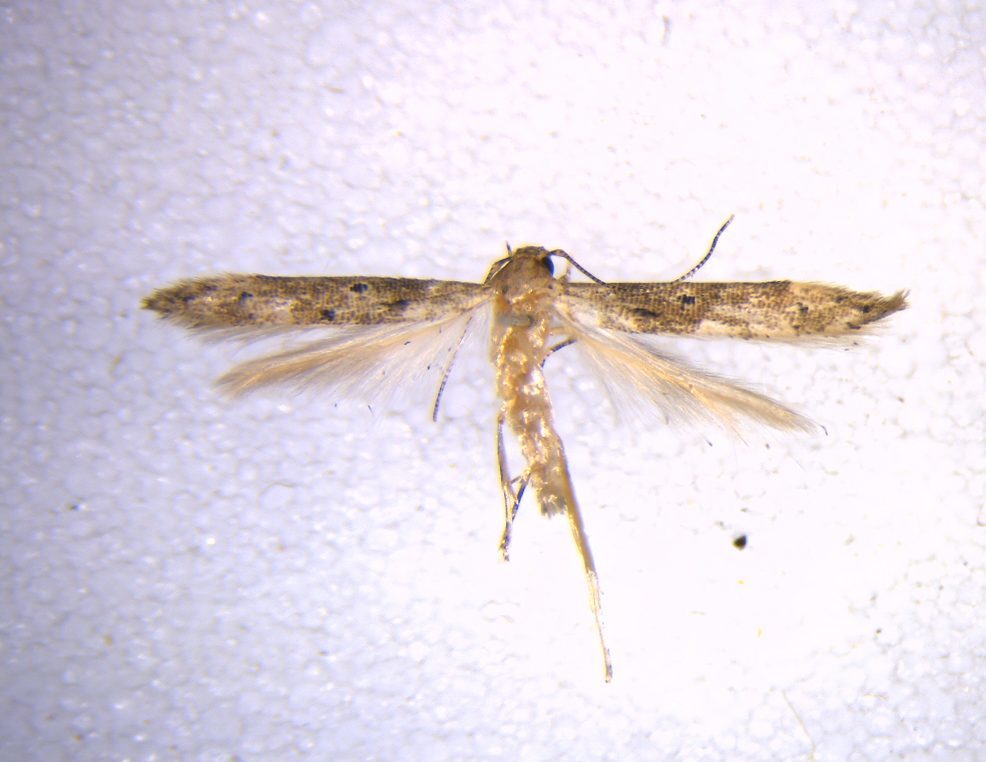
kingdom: Animalia
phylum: Arthropoda
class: Insecta
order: Lepidoptera
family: Elachistidae
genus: Microcolona
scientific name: Microcolona limodes
